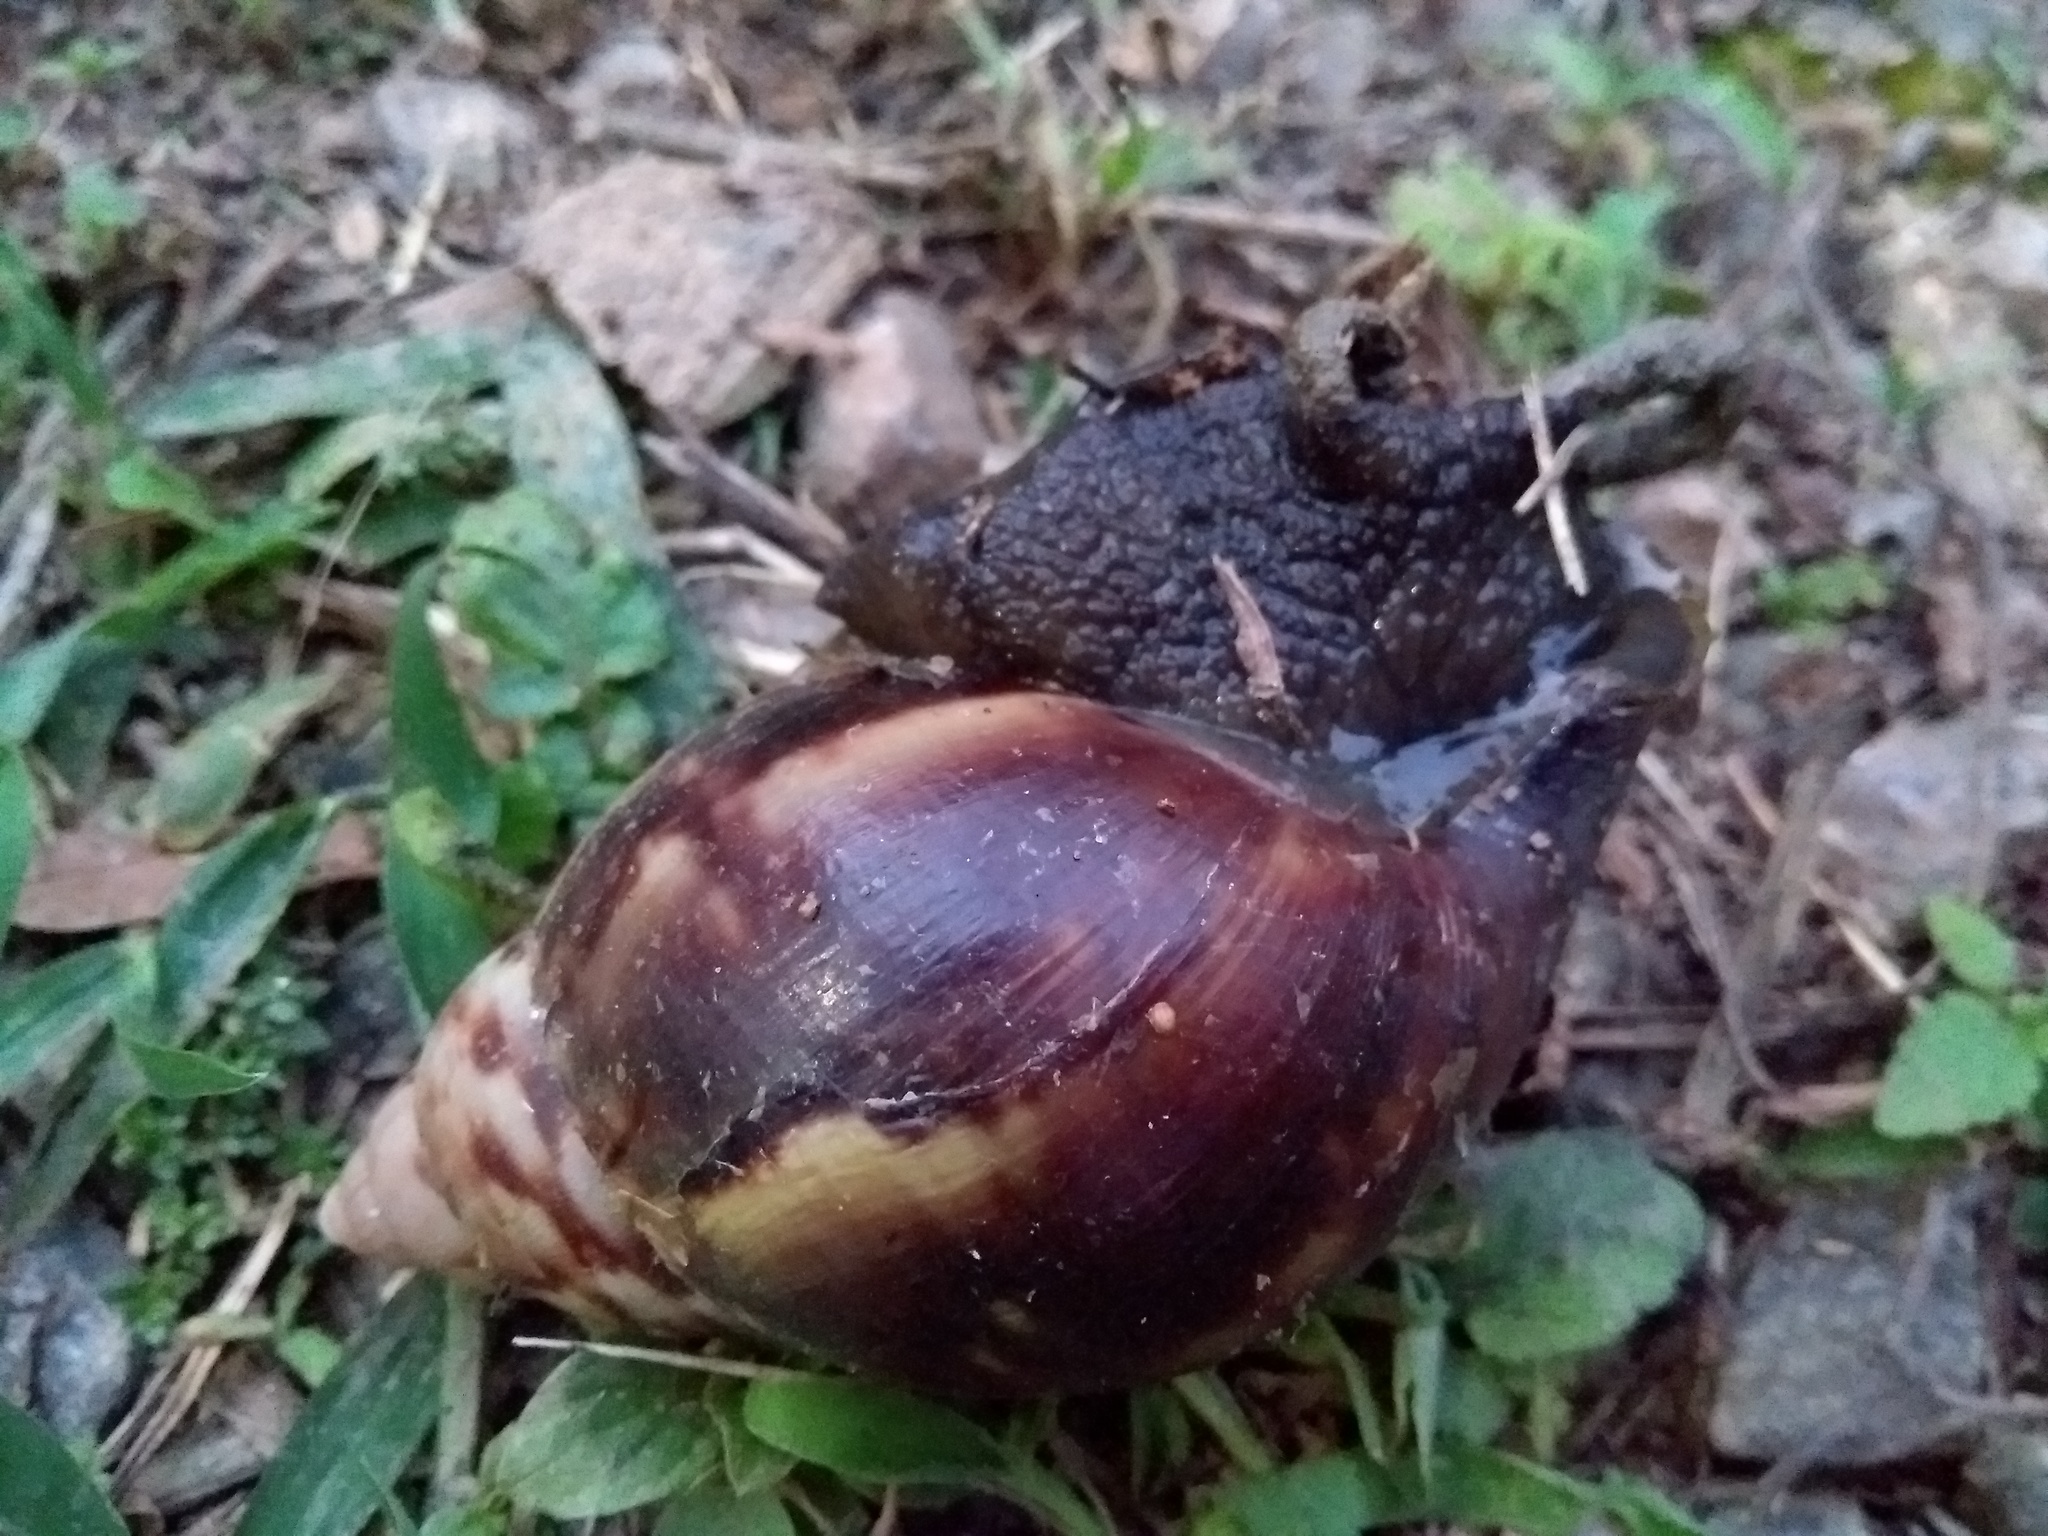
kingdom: Animalia
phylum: Mollusca
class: Gastropoda
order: Stylommatophora
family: Achatinidae
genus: Lissachatina
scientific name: Lissachatina fulica
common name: Giant african snail
